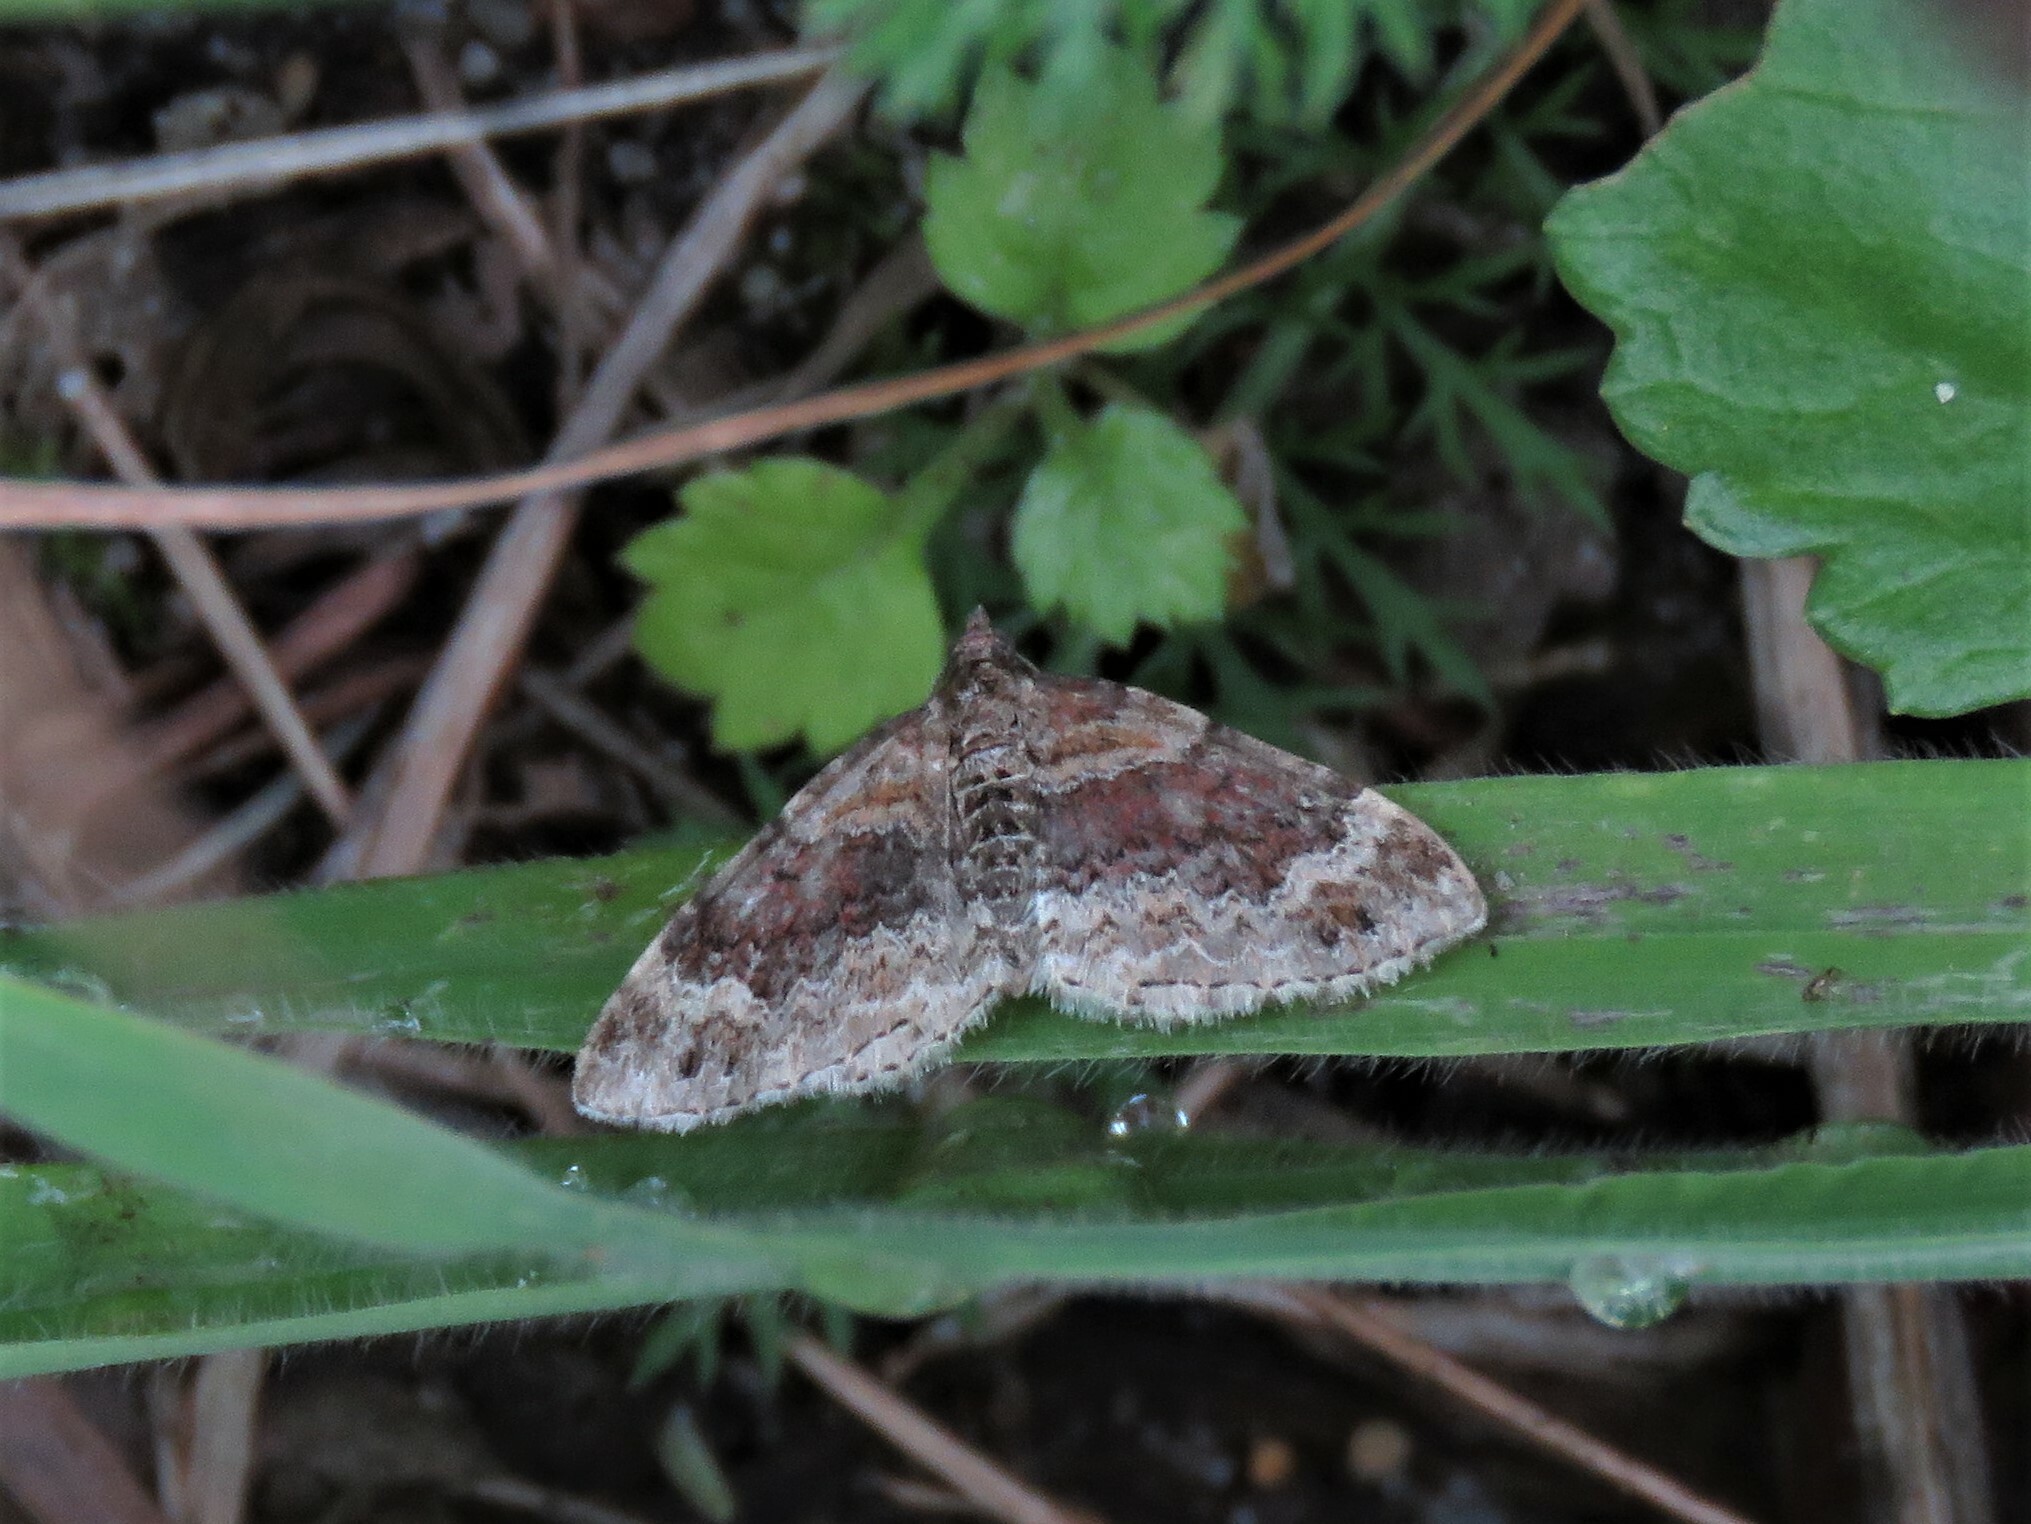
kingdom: Animalia
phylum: Arthropoda
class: Insecta
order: Lepidoptera
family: Geometridae
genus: Xanthorhoe
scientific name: Xanthorhoe spadicearia
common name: Red twin-spot carpet
